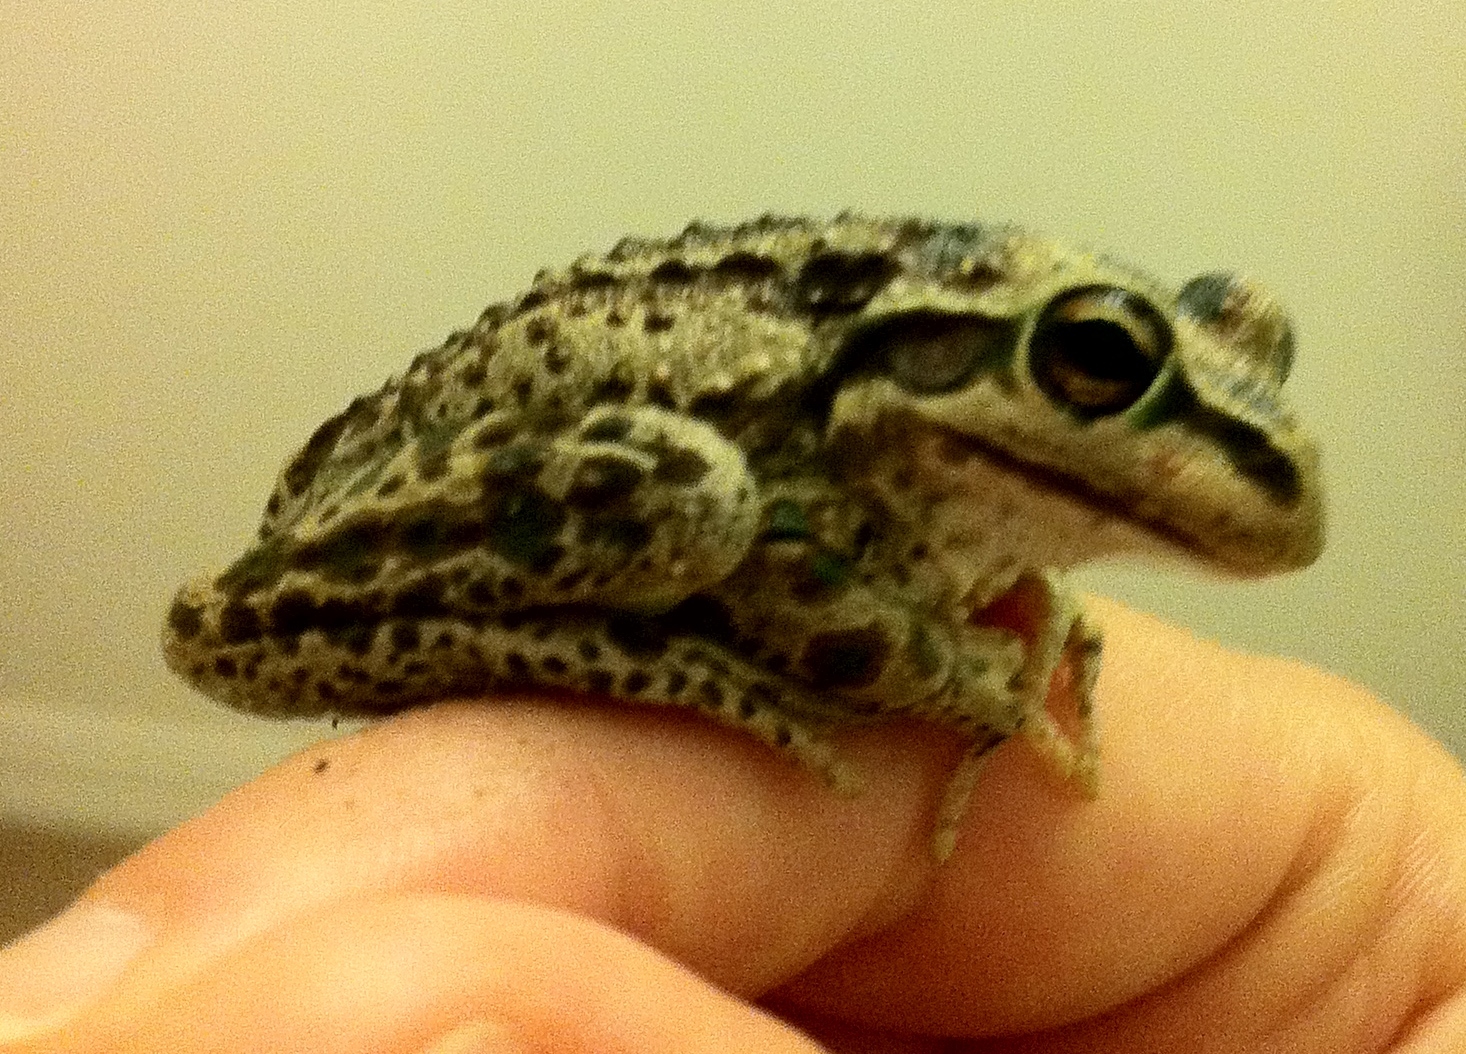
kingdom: Animalia
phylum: Chordata
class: Amphibia
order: Anura
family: Pelodryadidae
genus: Ranoidea
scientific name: Ranoidea moorei
